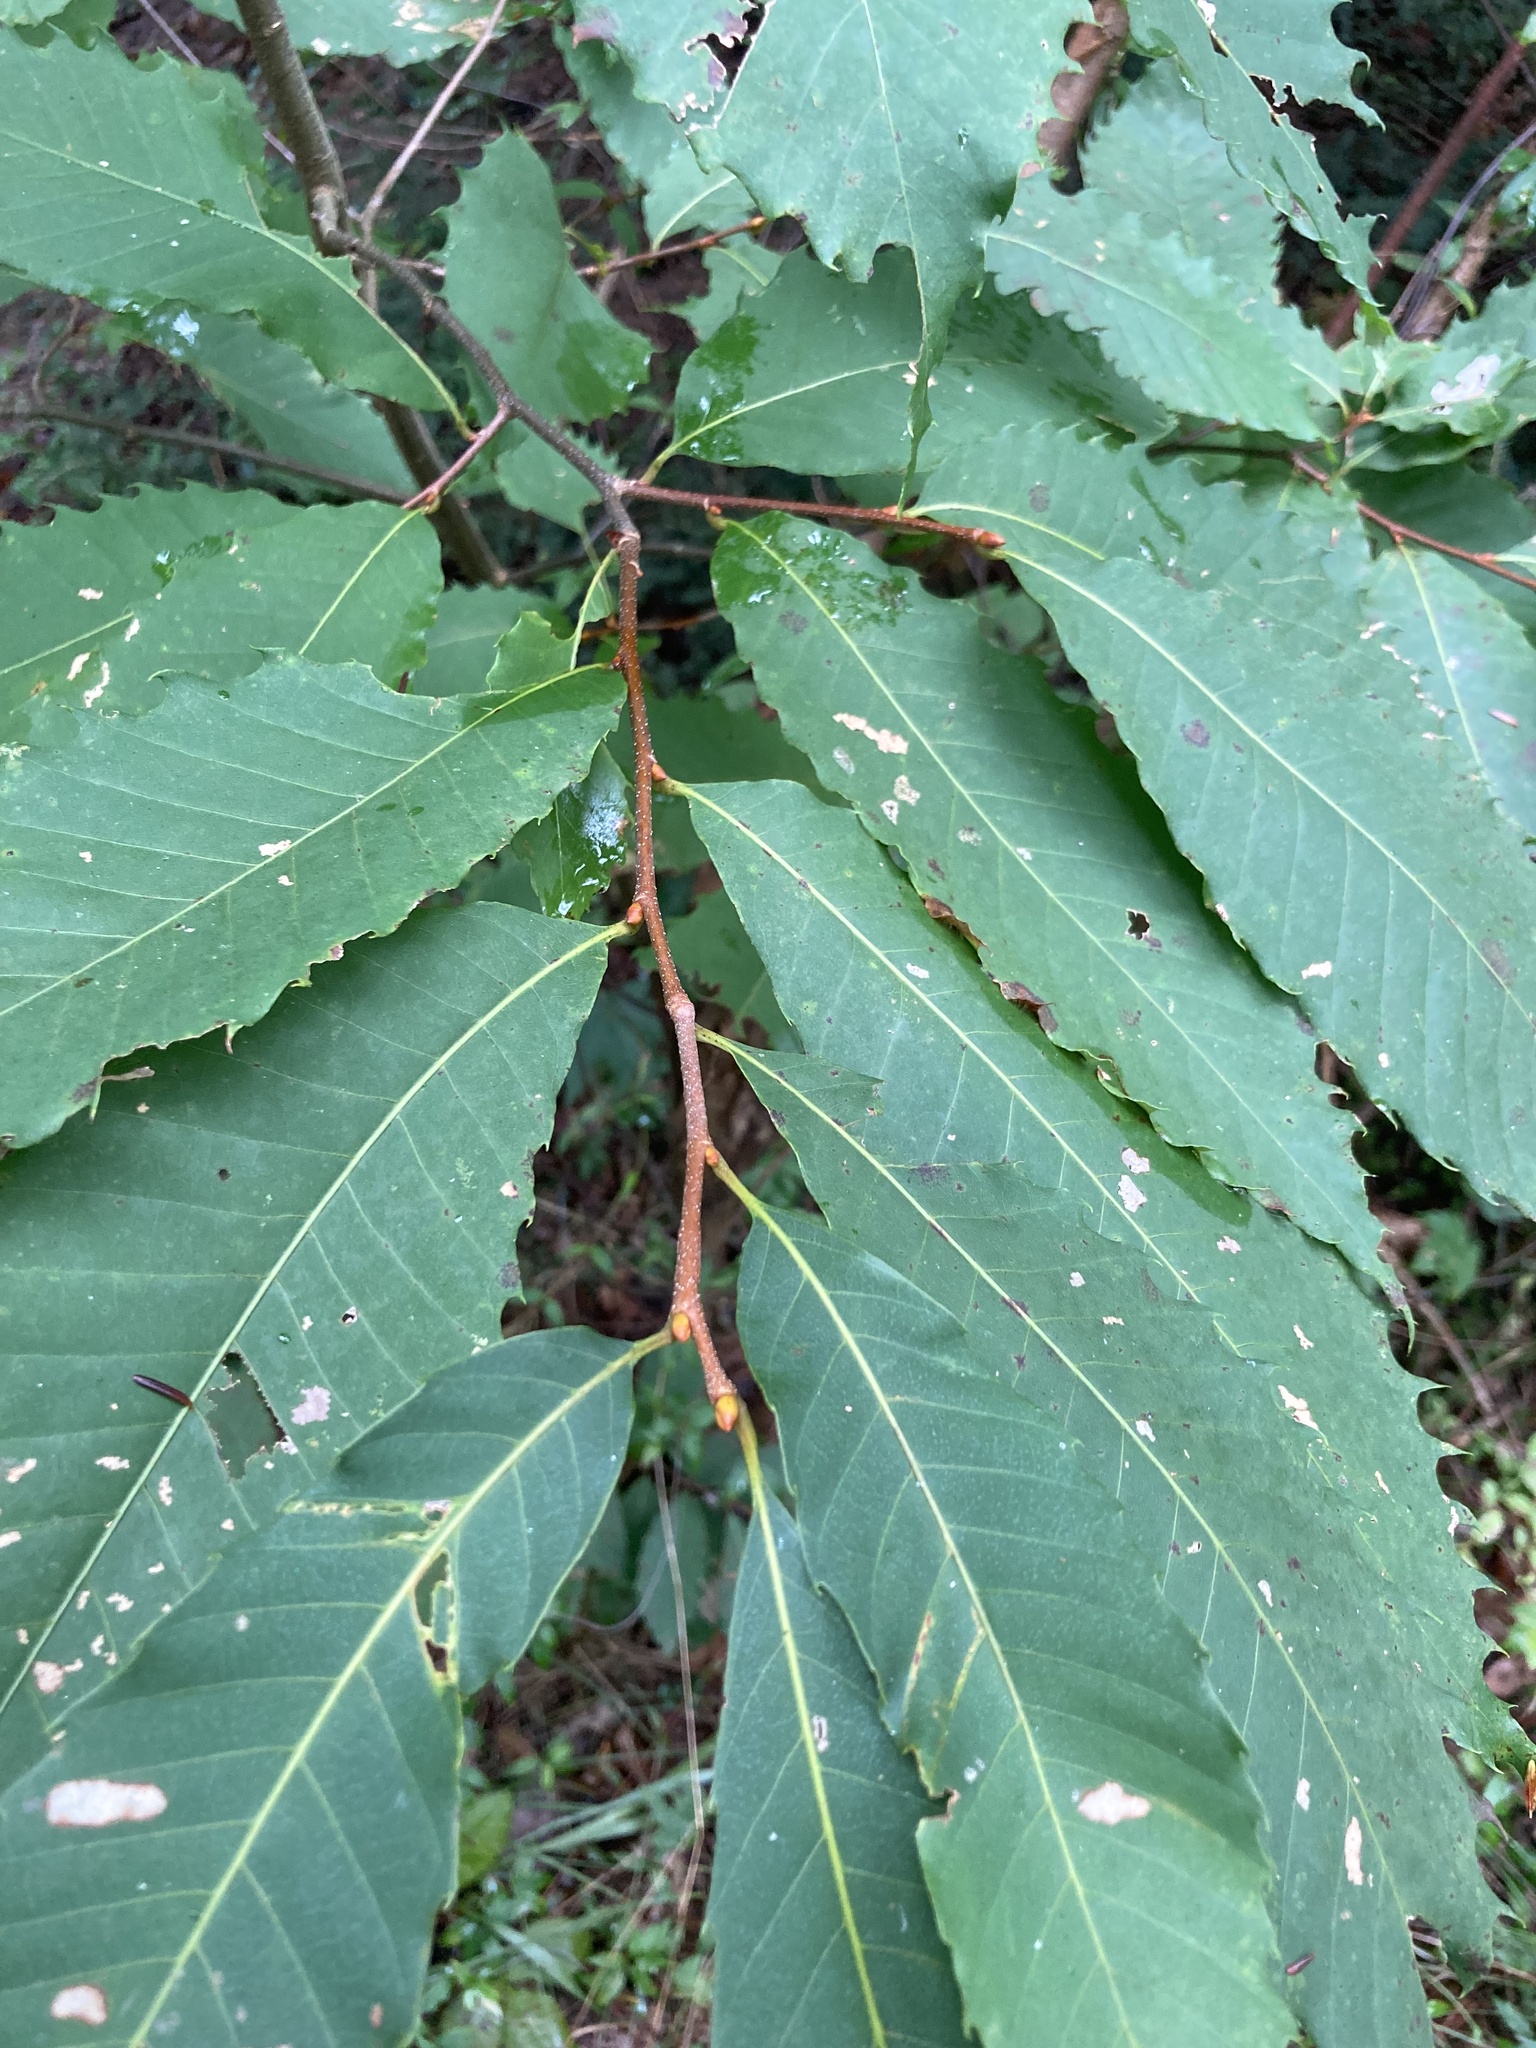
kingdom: Plantae
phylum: Tracheophyta
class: Magnoliopsida
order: Fagales
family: Fagaceae
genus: Castanea
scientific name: Castanea dentata
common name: American chestnut
